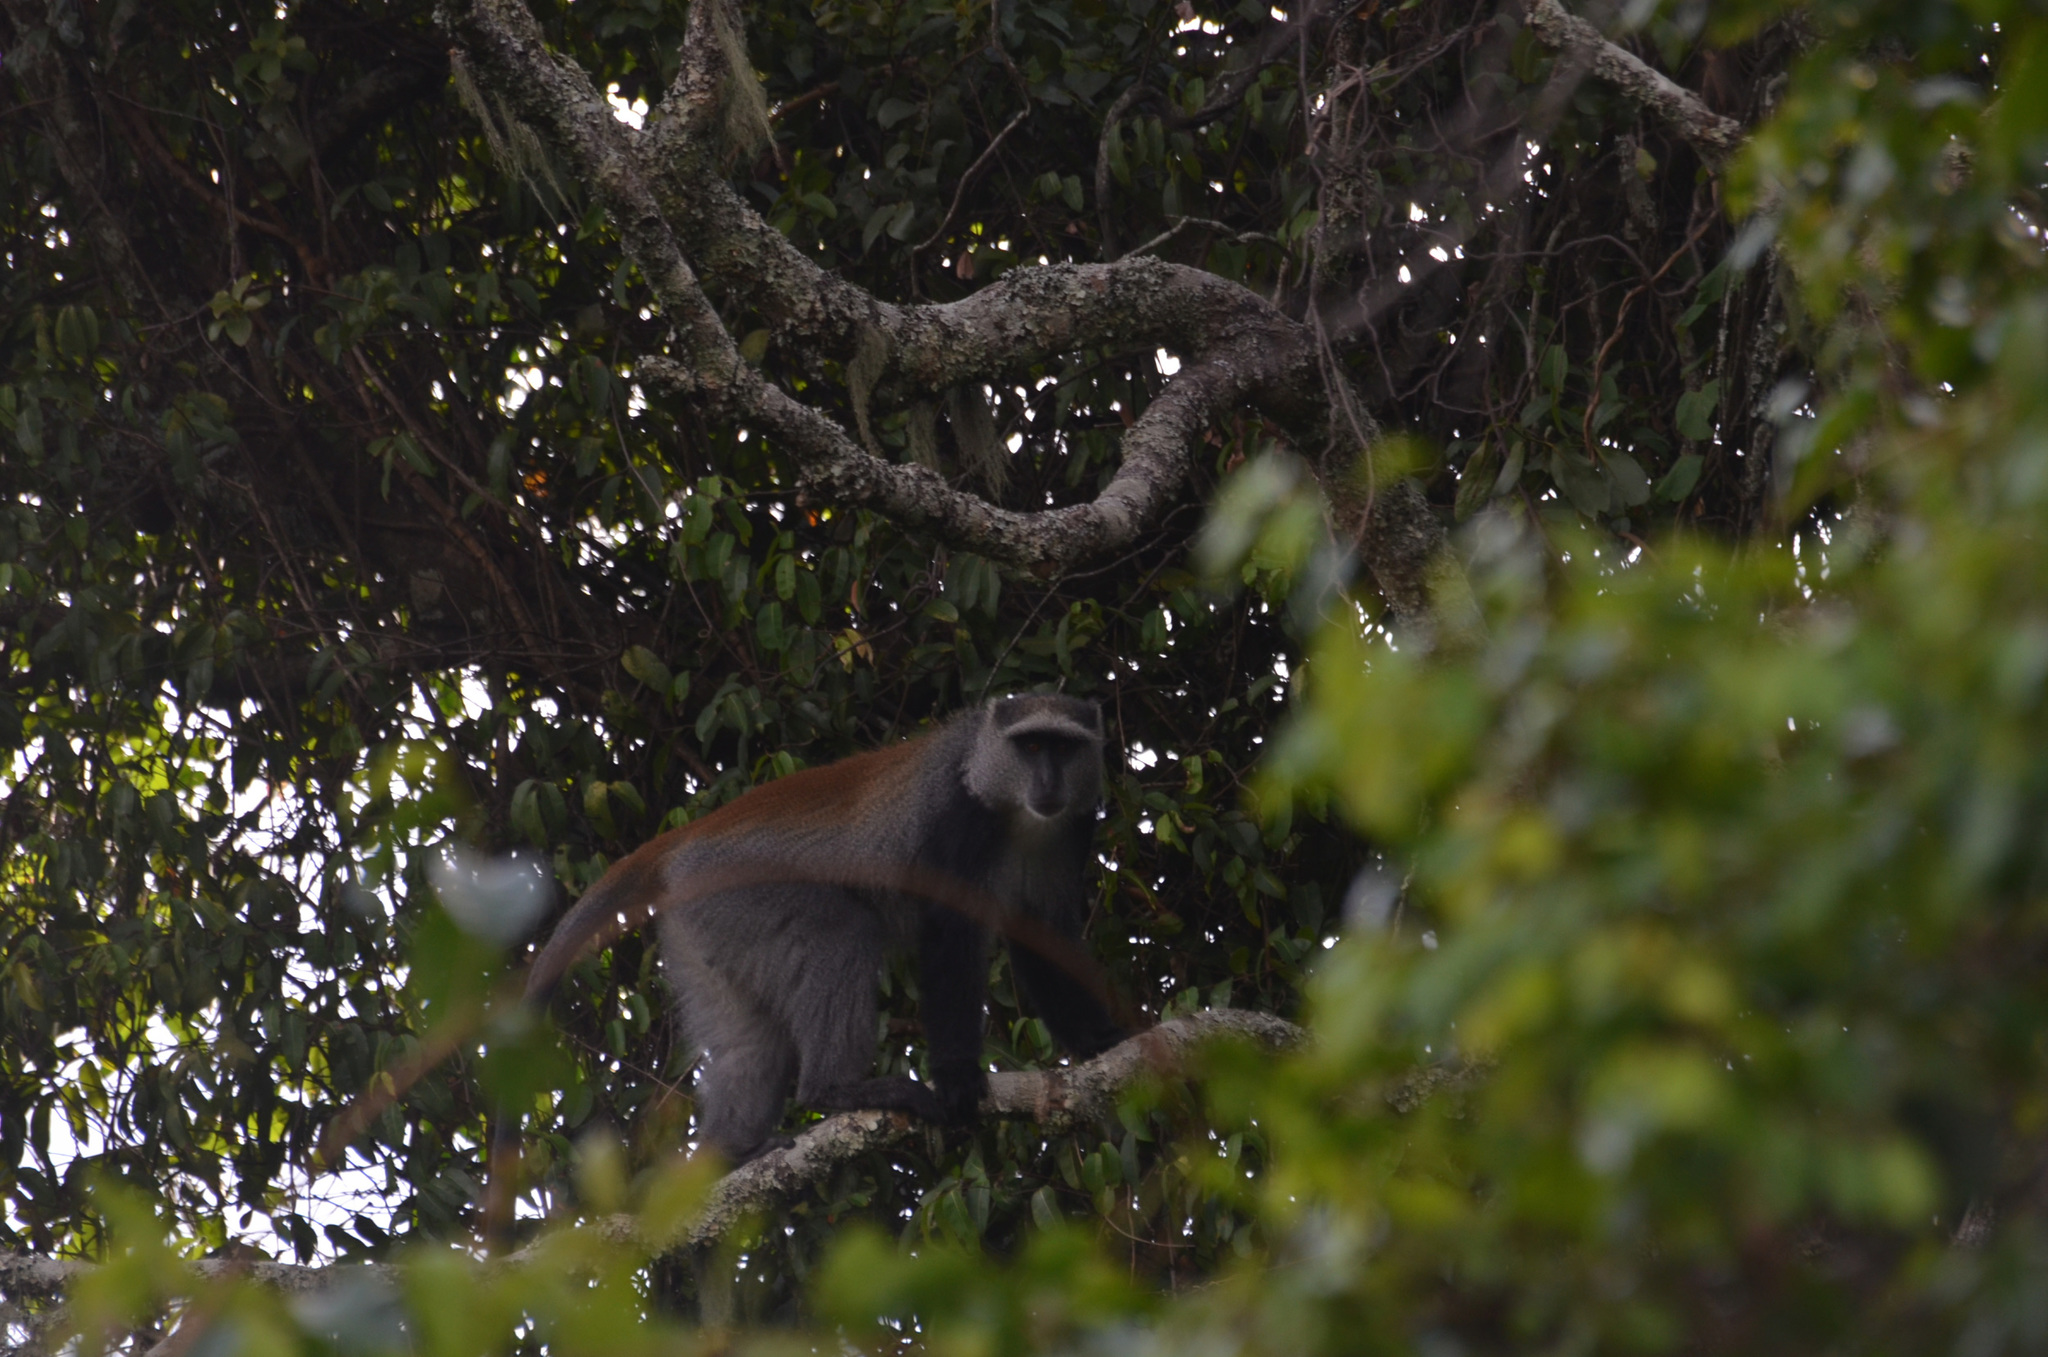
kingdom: Animalia
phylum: Chordata
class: Mammalia
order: Primates
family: Cercopithecidae
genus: Cercopithecus
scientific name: Cercopithecus mitis
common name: Blue monkey
